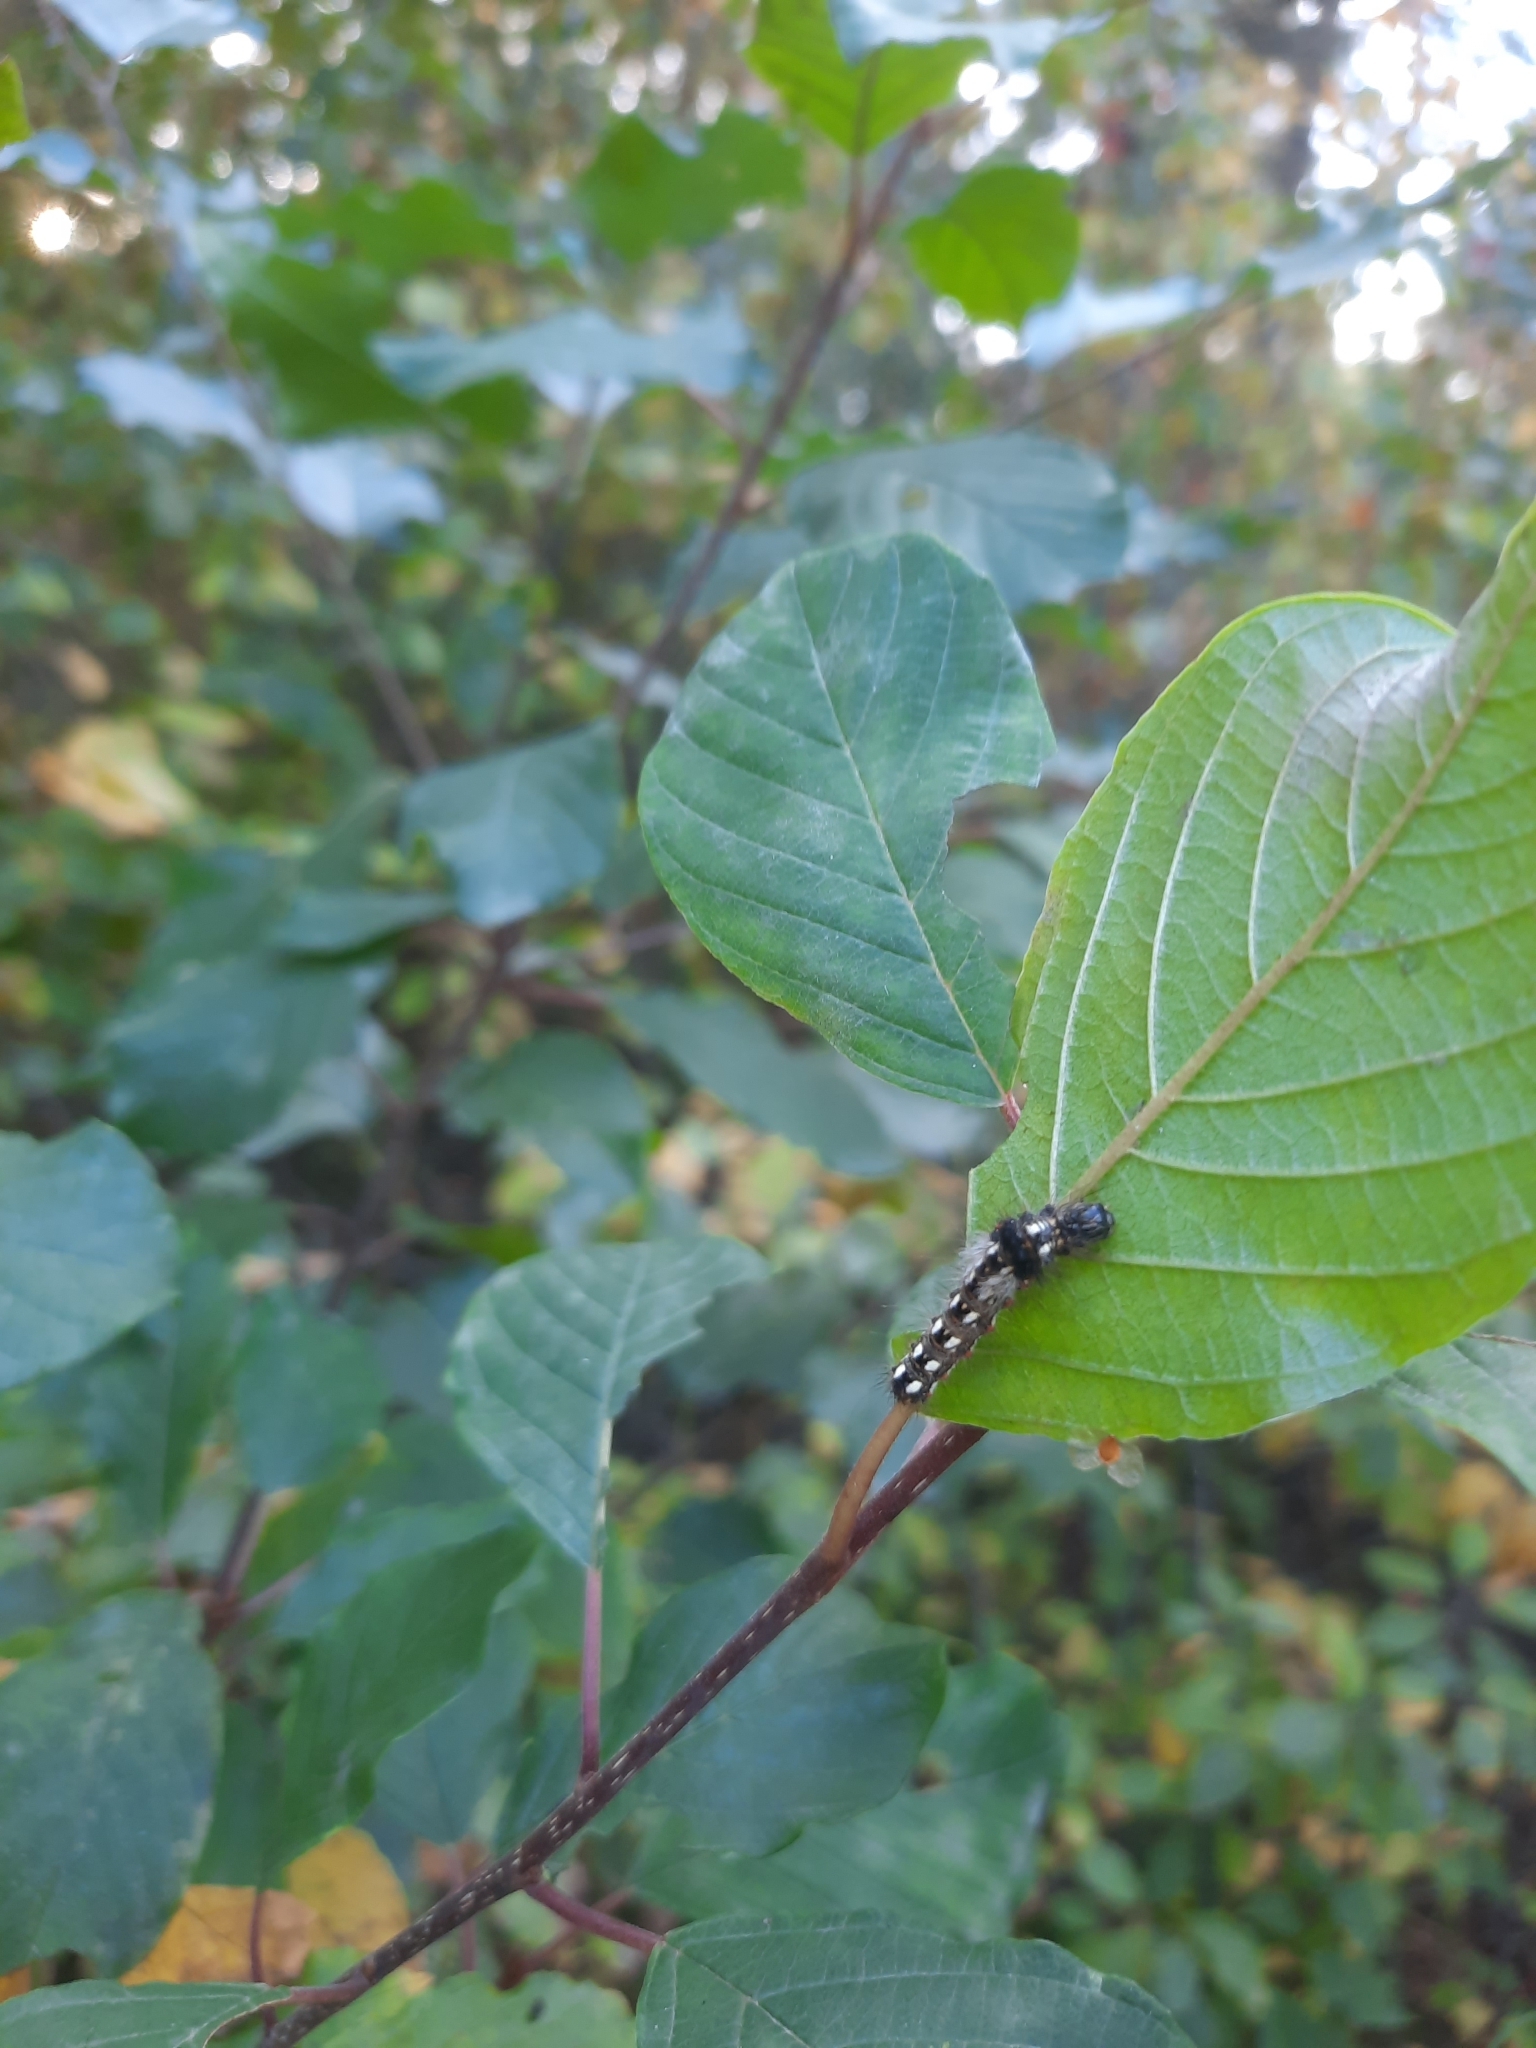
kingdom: Animalia
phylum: Arthropoda
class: Insecta
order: Lepidoptera
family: Noctuidae
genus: Acronicta
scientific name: Acronicta rumicis
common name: Knot grass
